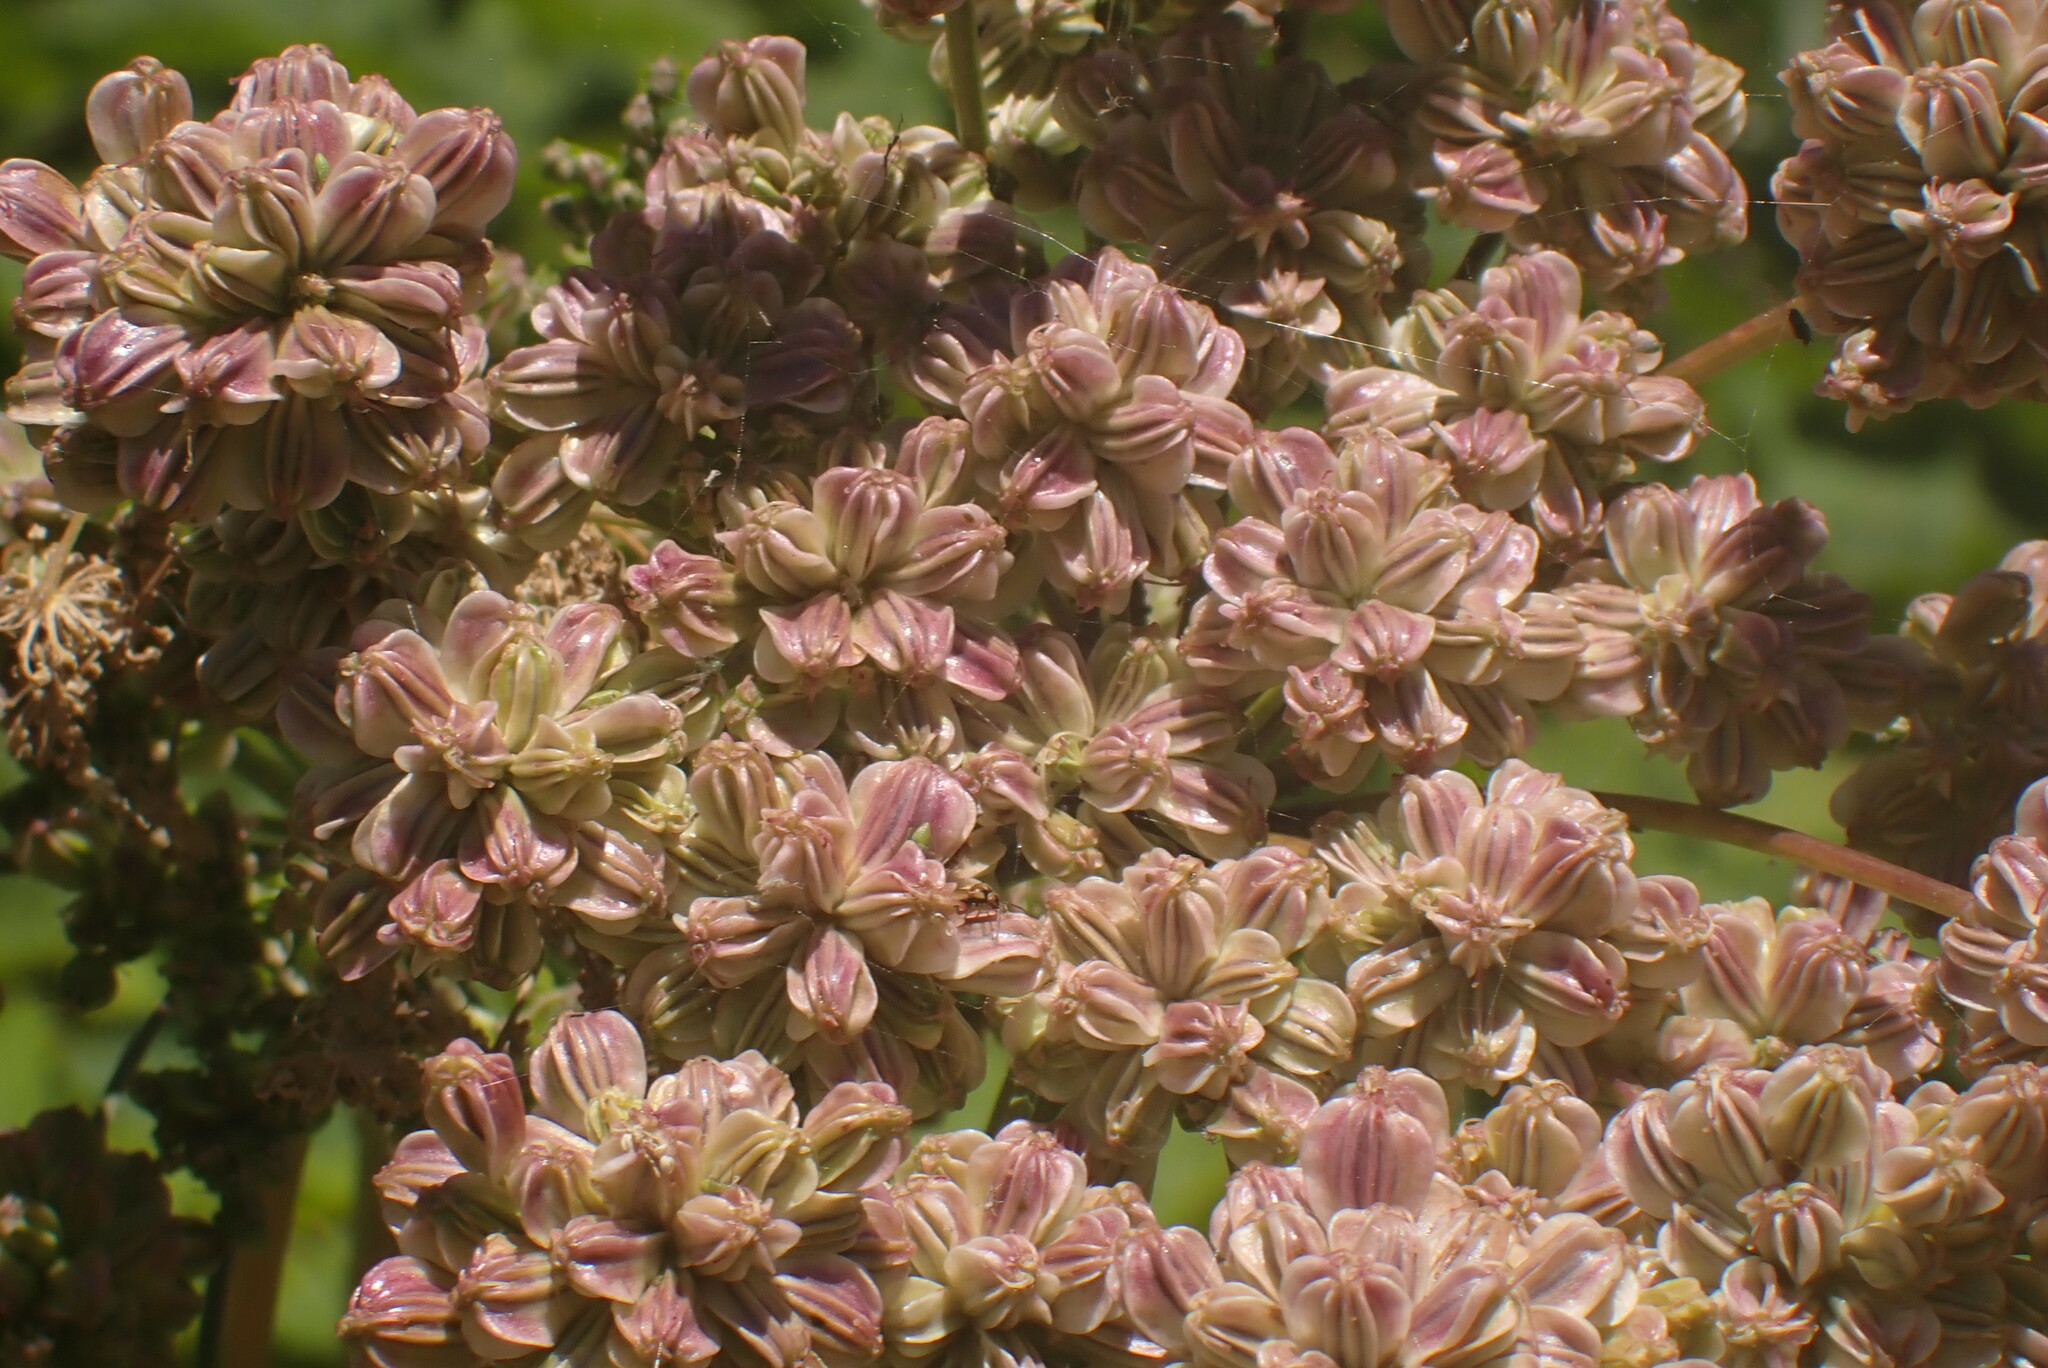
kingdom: Plantae
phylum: Tracheophyta
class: Magnoliopsida
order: Apiales
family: Apiaceae
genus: Angelica
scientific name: Angelica arguta
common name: Lyall's angelica
